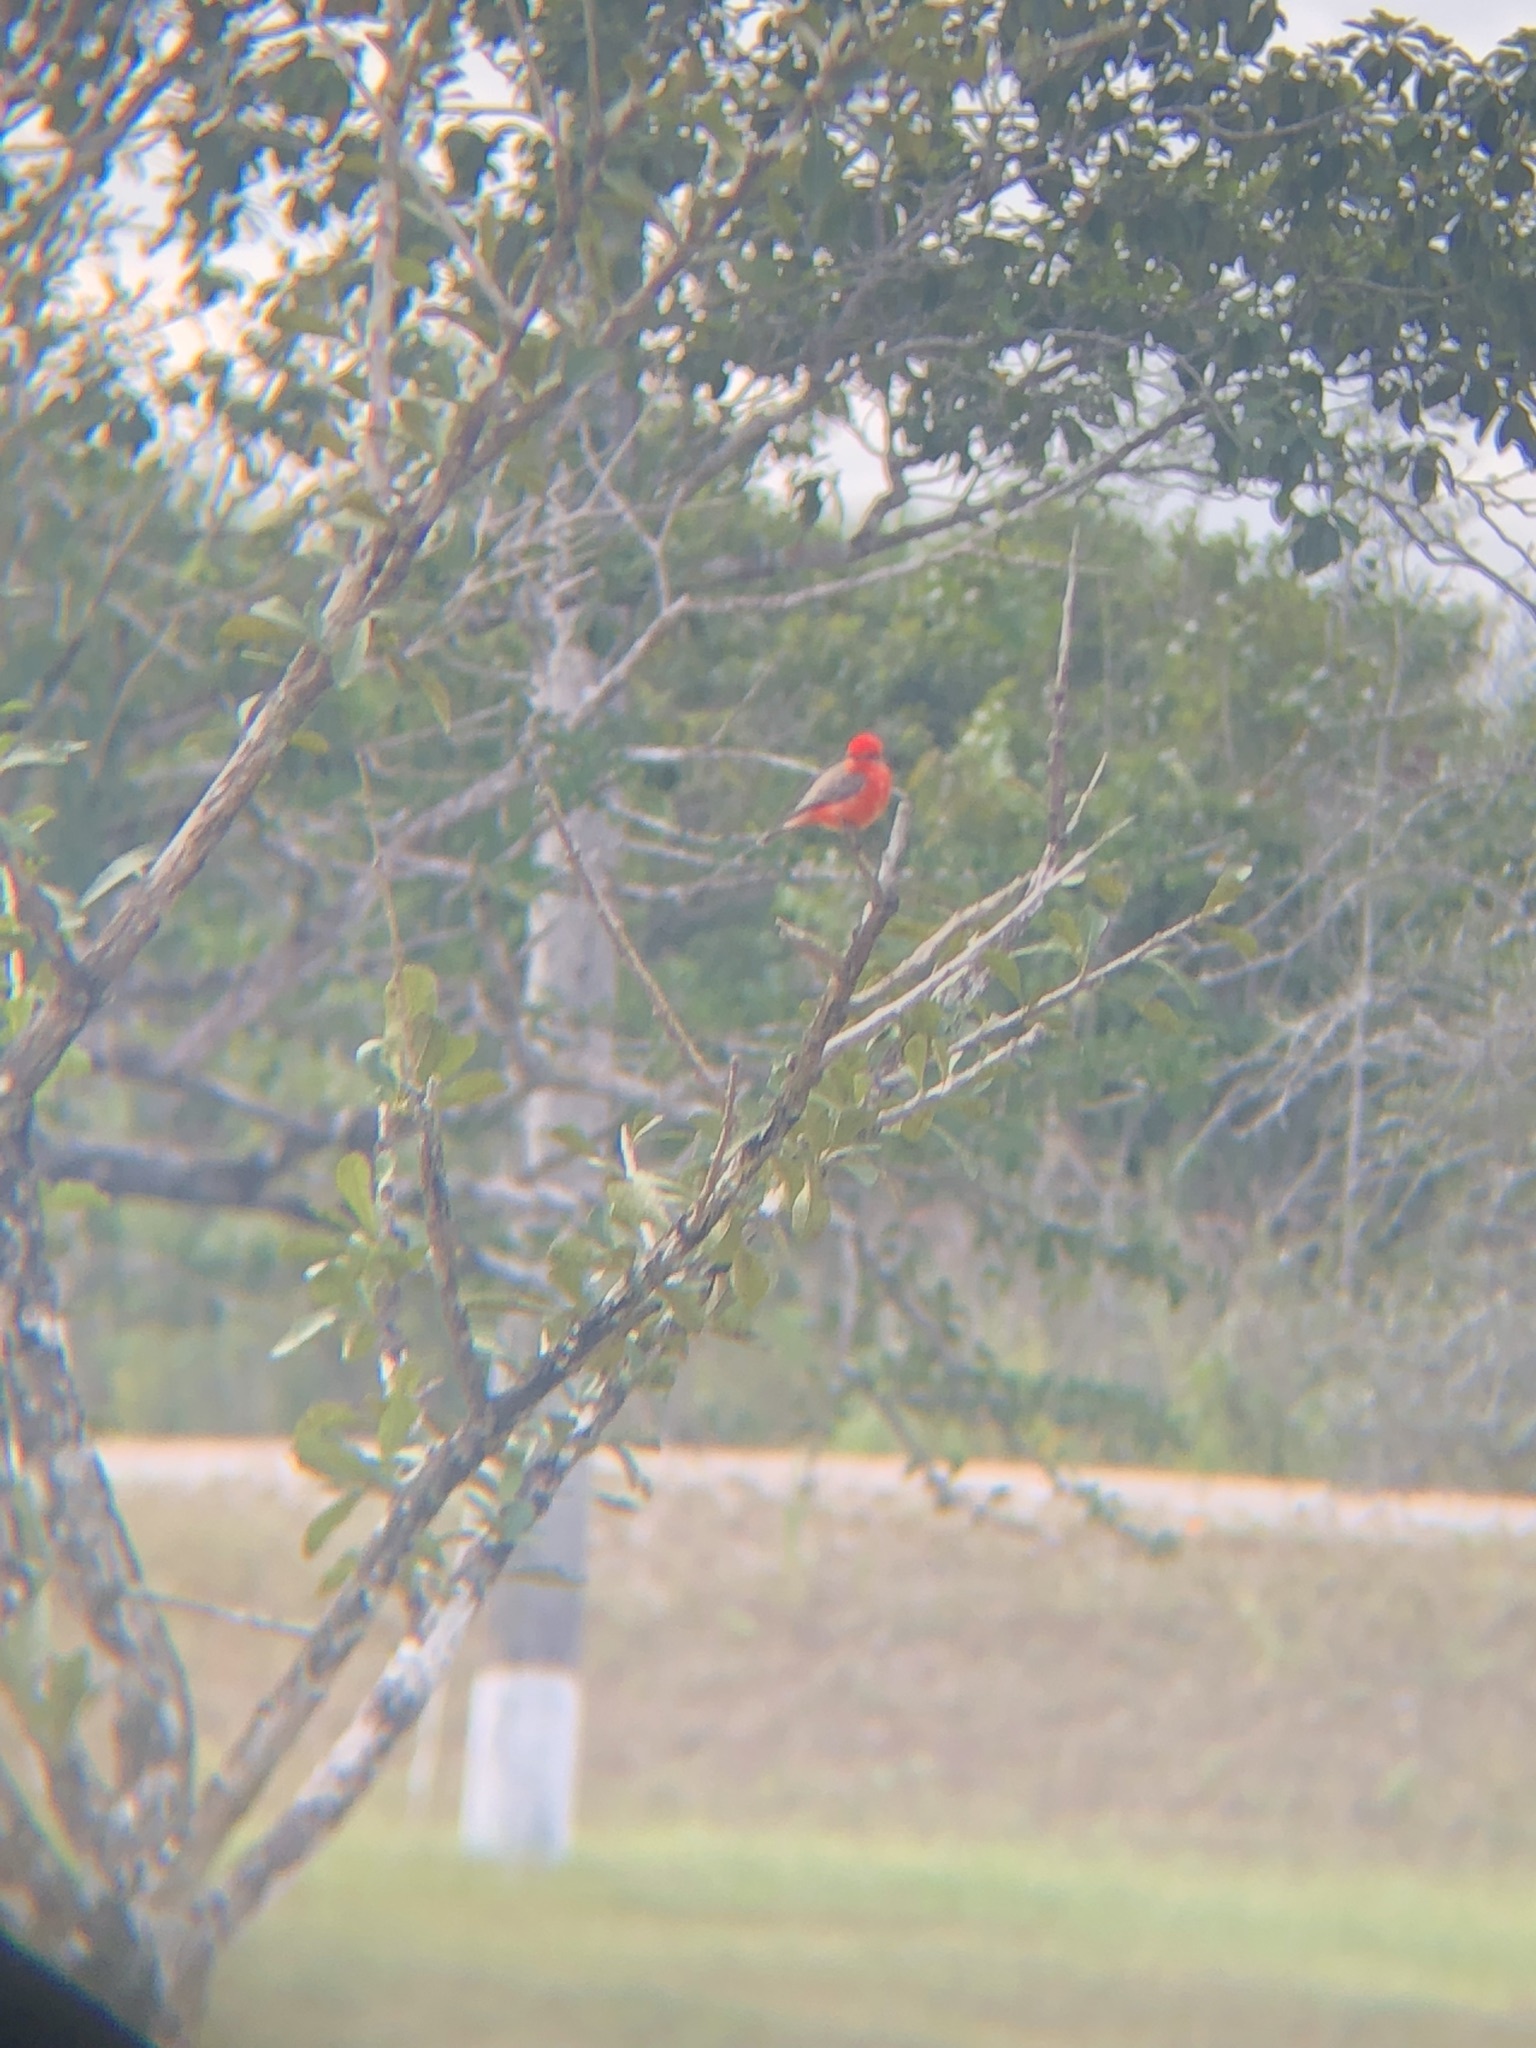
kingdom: Animalia
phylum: Chordata
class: Aves
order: Passeriformes
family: Tyrannidae
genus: Pyrocephalus
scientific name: Pyrocephalus rubinus
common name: Vermilion flycatcher
